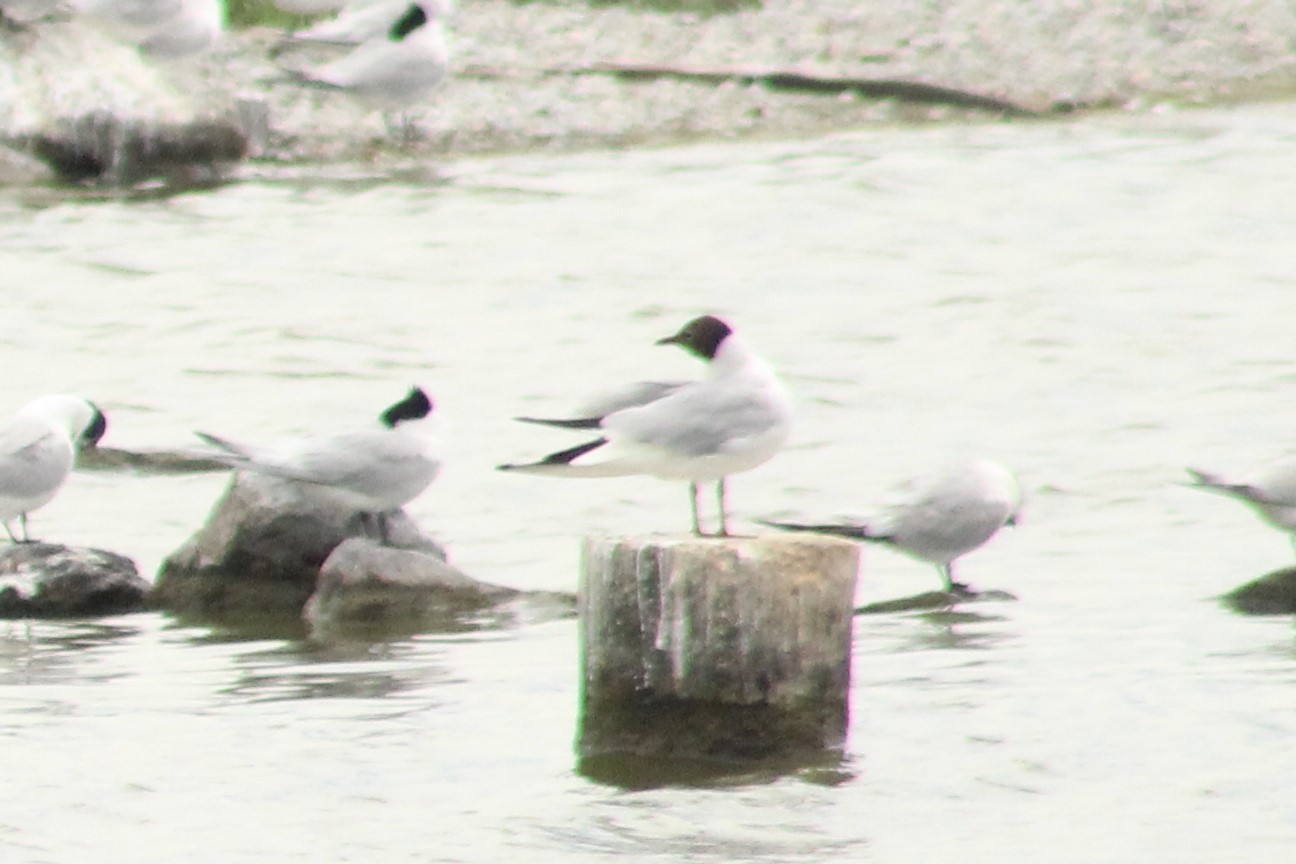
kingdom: Animalia
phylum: Chordata
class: Aves
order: Charadriiformes
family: Laridae
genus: Chroicocephalus
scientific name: Chroicocephalus ridibundus
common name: Black-headed gull
